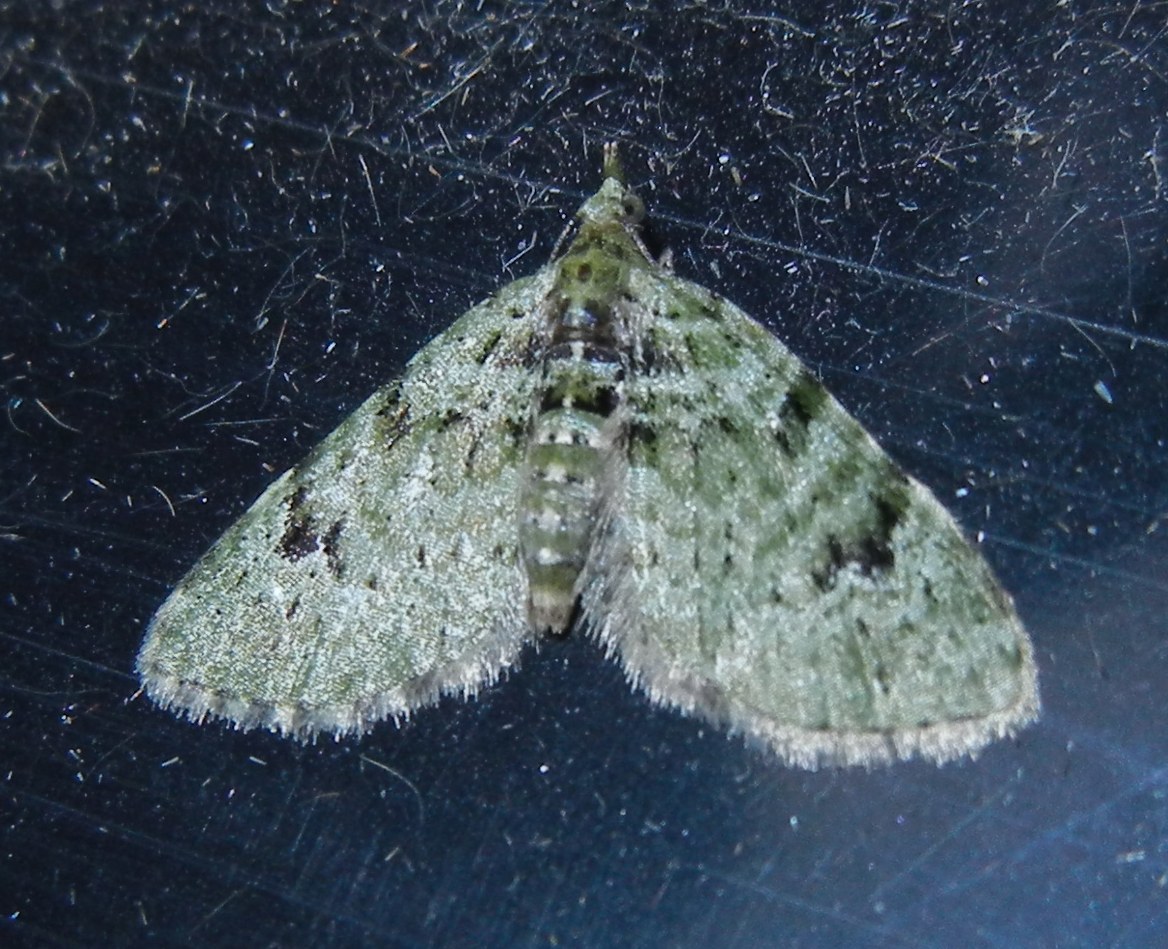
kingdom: Animalia
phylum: Arthropoda
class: Insecta
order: Lepidoptera
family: Geometridae
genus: Chloroclystis
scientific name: Chloroclystis v-ata
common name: V-pug
